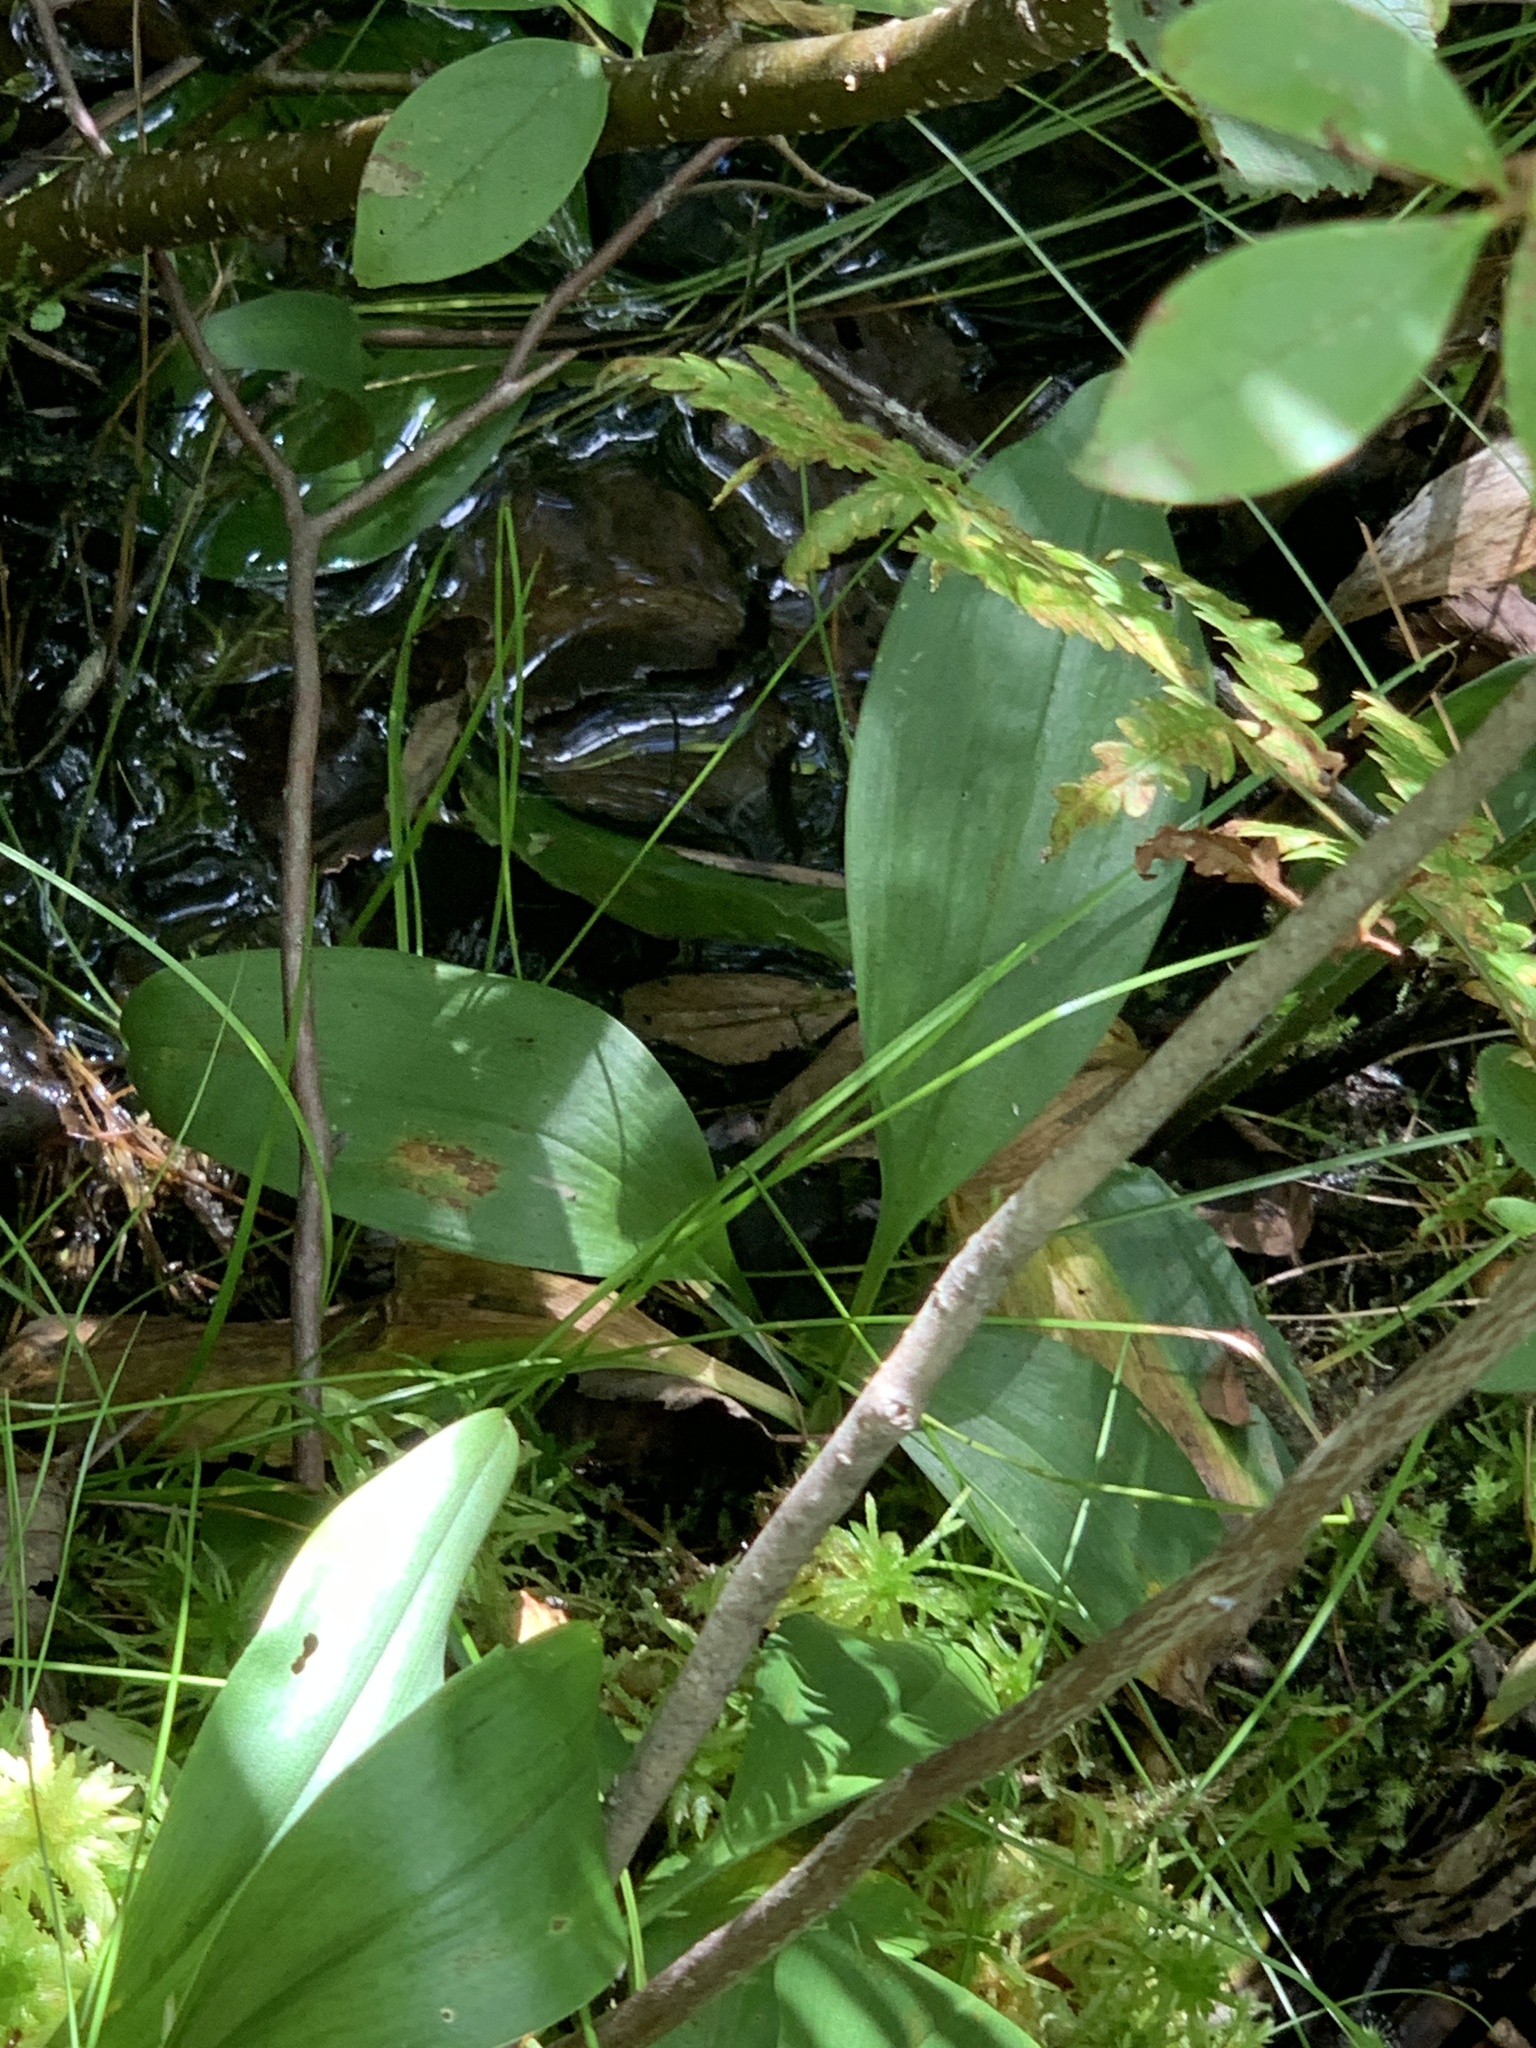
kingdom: Plantae
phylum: Tracheophyta
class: Liliopsida
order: Liliales
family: Liliaceae
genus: Clintonia
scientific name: Clintonia borealis
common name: Yellow clintonia
